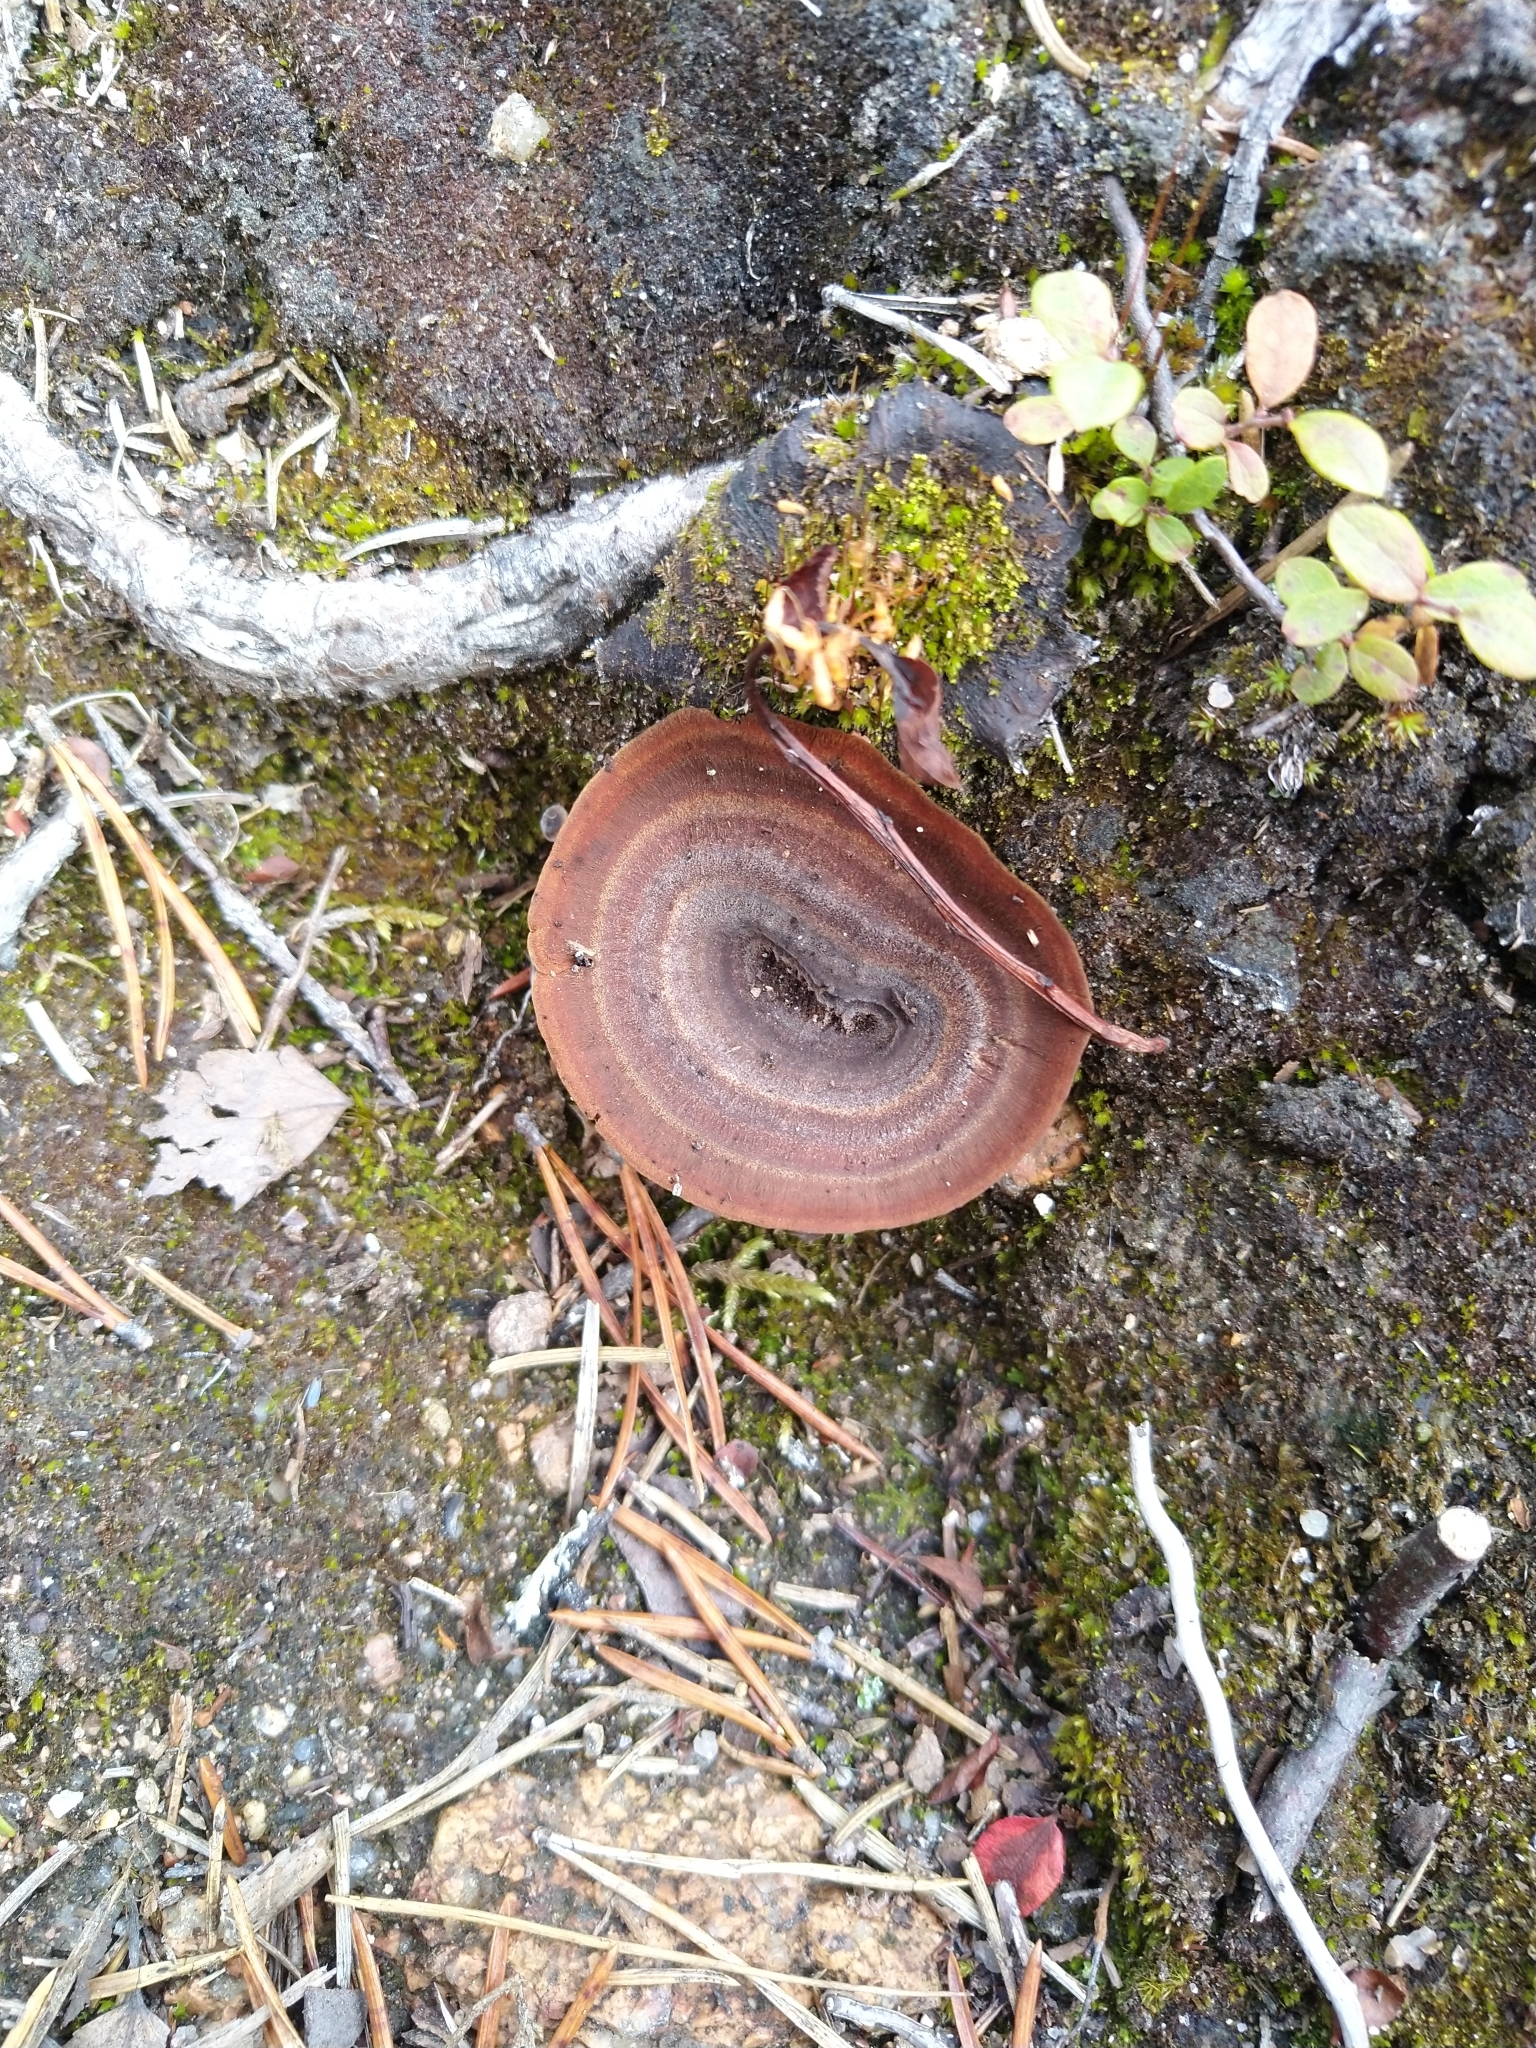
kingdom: Fungi
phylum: Basidiomycota
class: Agaricomycetes
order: Hymenochaetales
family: Hymenochaetaceae
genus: Coltricia
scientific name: Coltricia perennis
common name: Tiger's eye
